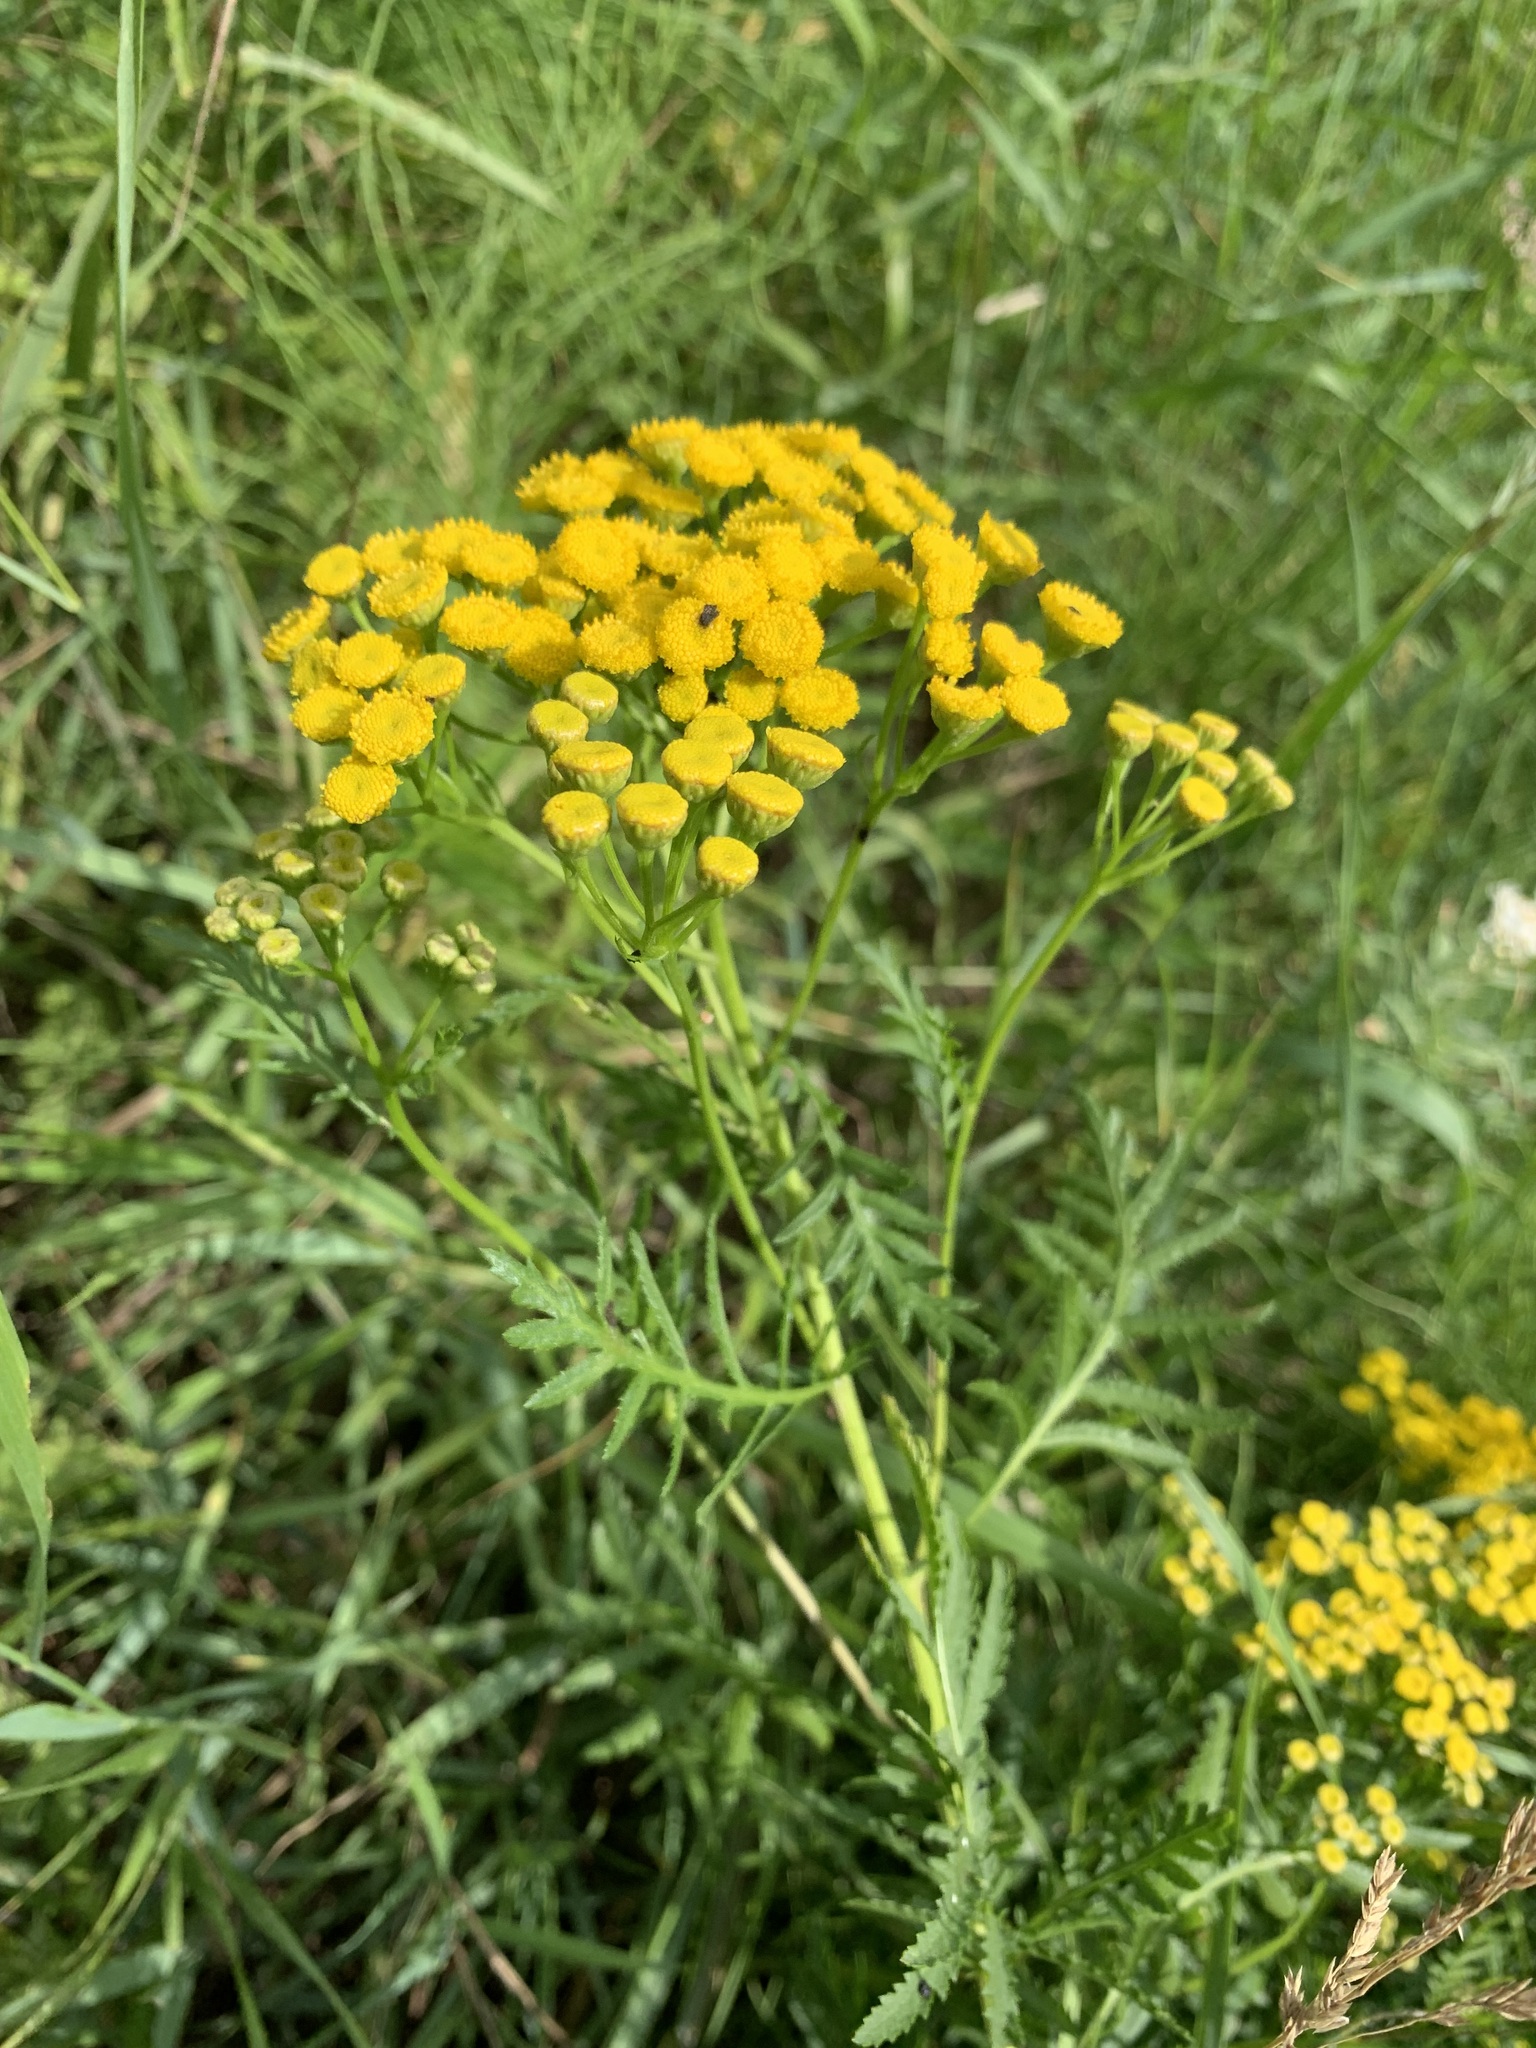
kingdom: Plantae
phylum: Tracheophyta
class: Magnoliopsida
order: Asterales
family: Asteraceae
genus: Tanacetum
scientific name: Tanacetum vulgare
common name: Common tansy
